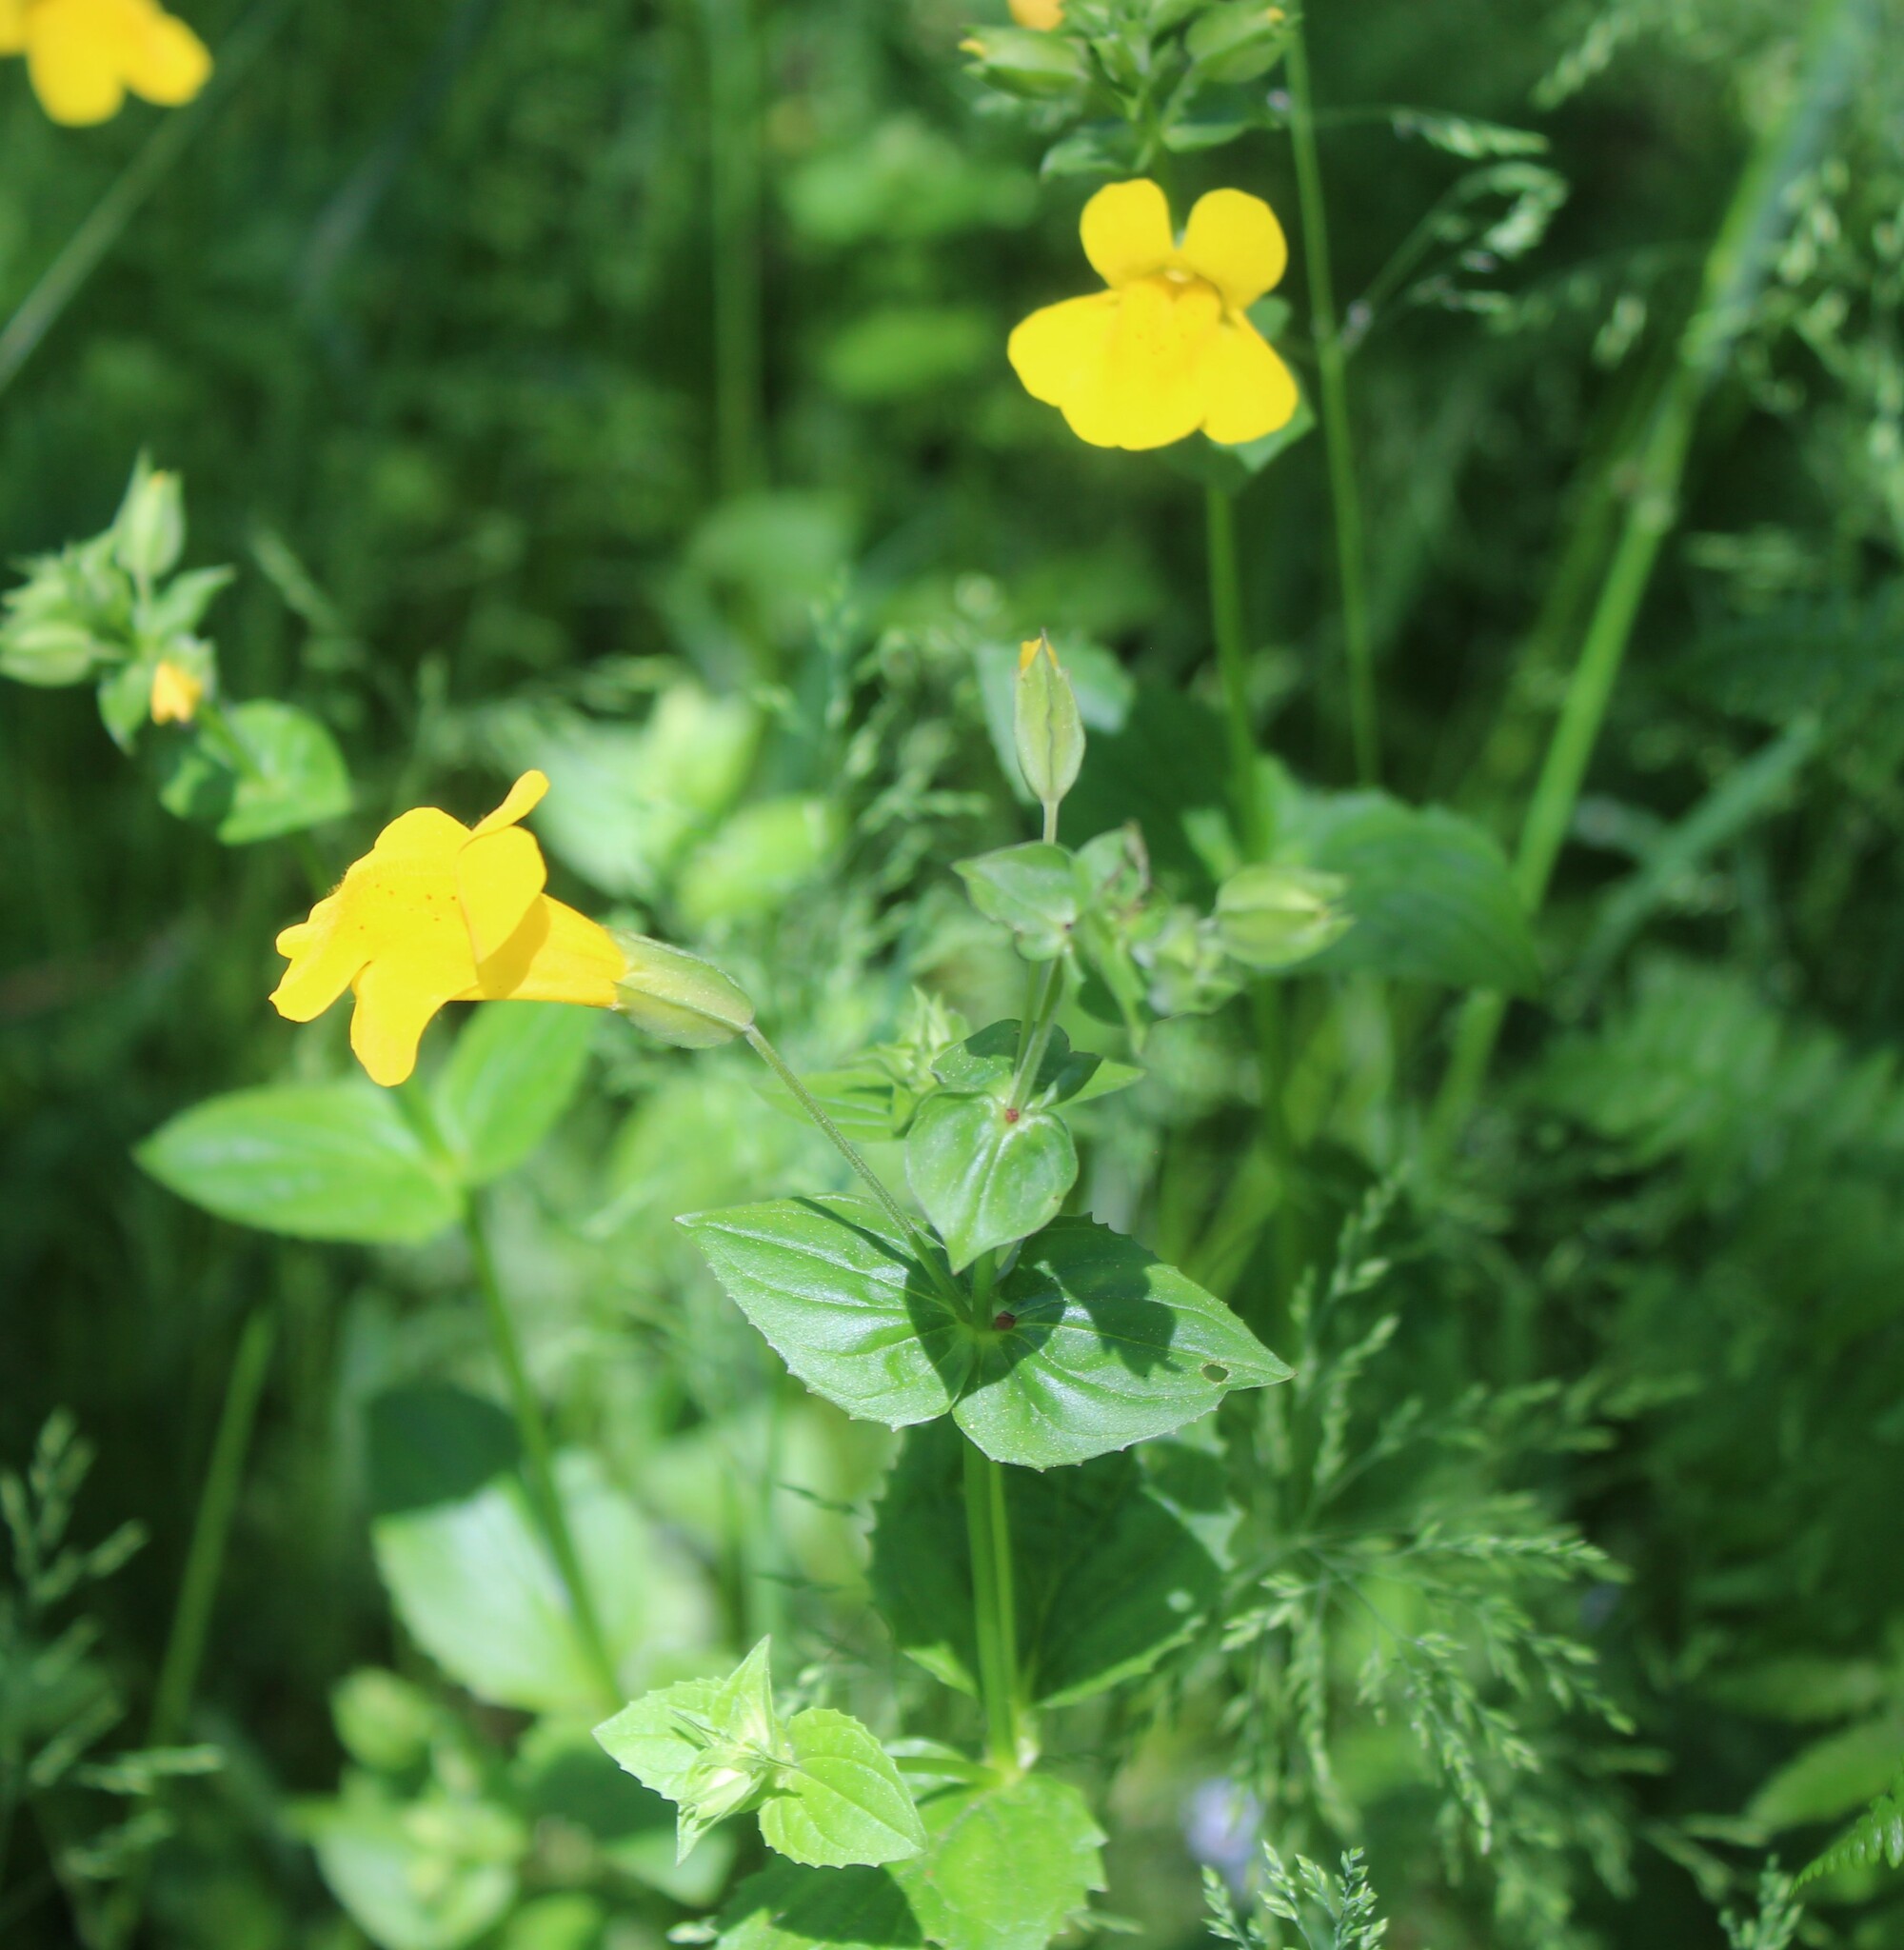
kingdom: Plantae
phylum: Tracheophyta
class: Magnoliopsida
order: Lamiales
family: Phrymaceae
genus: Erythranthe
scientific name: Erythranthe decora
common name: Mannered monkeyflower
